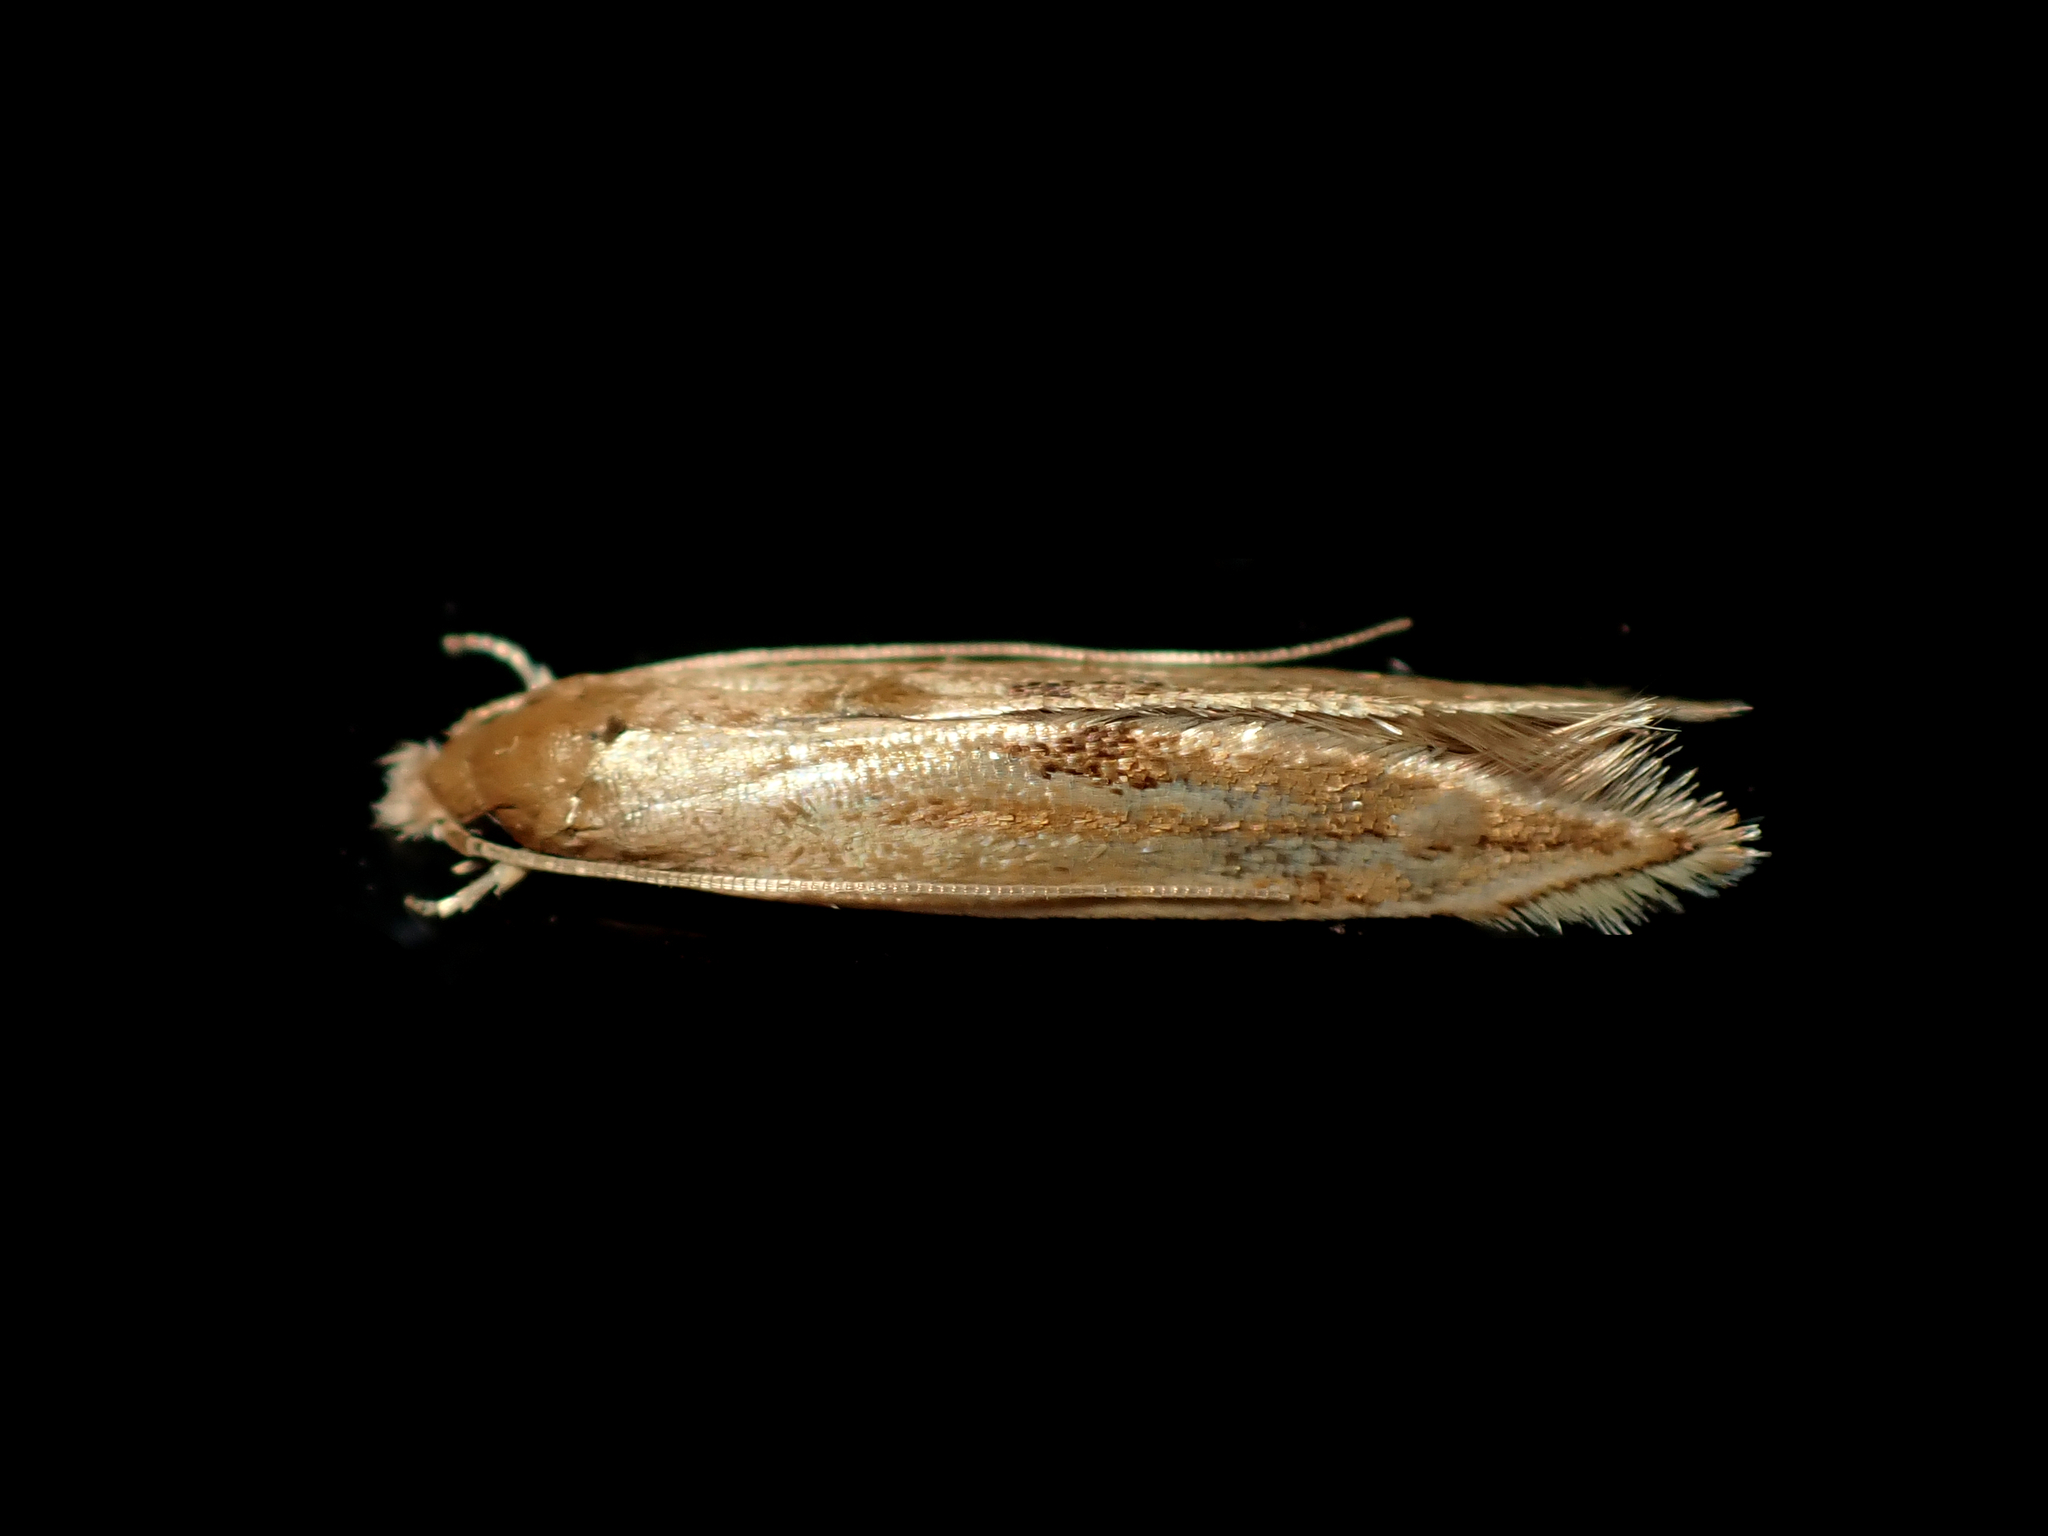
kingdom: Animalia
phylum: Arthropoda
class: Insecta
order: Lepidoptera
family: Tineidae
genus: Amphixystis
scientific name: Amphixystis hapsimacha
